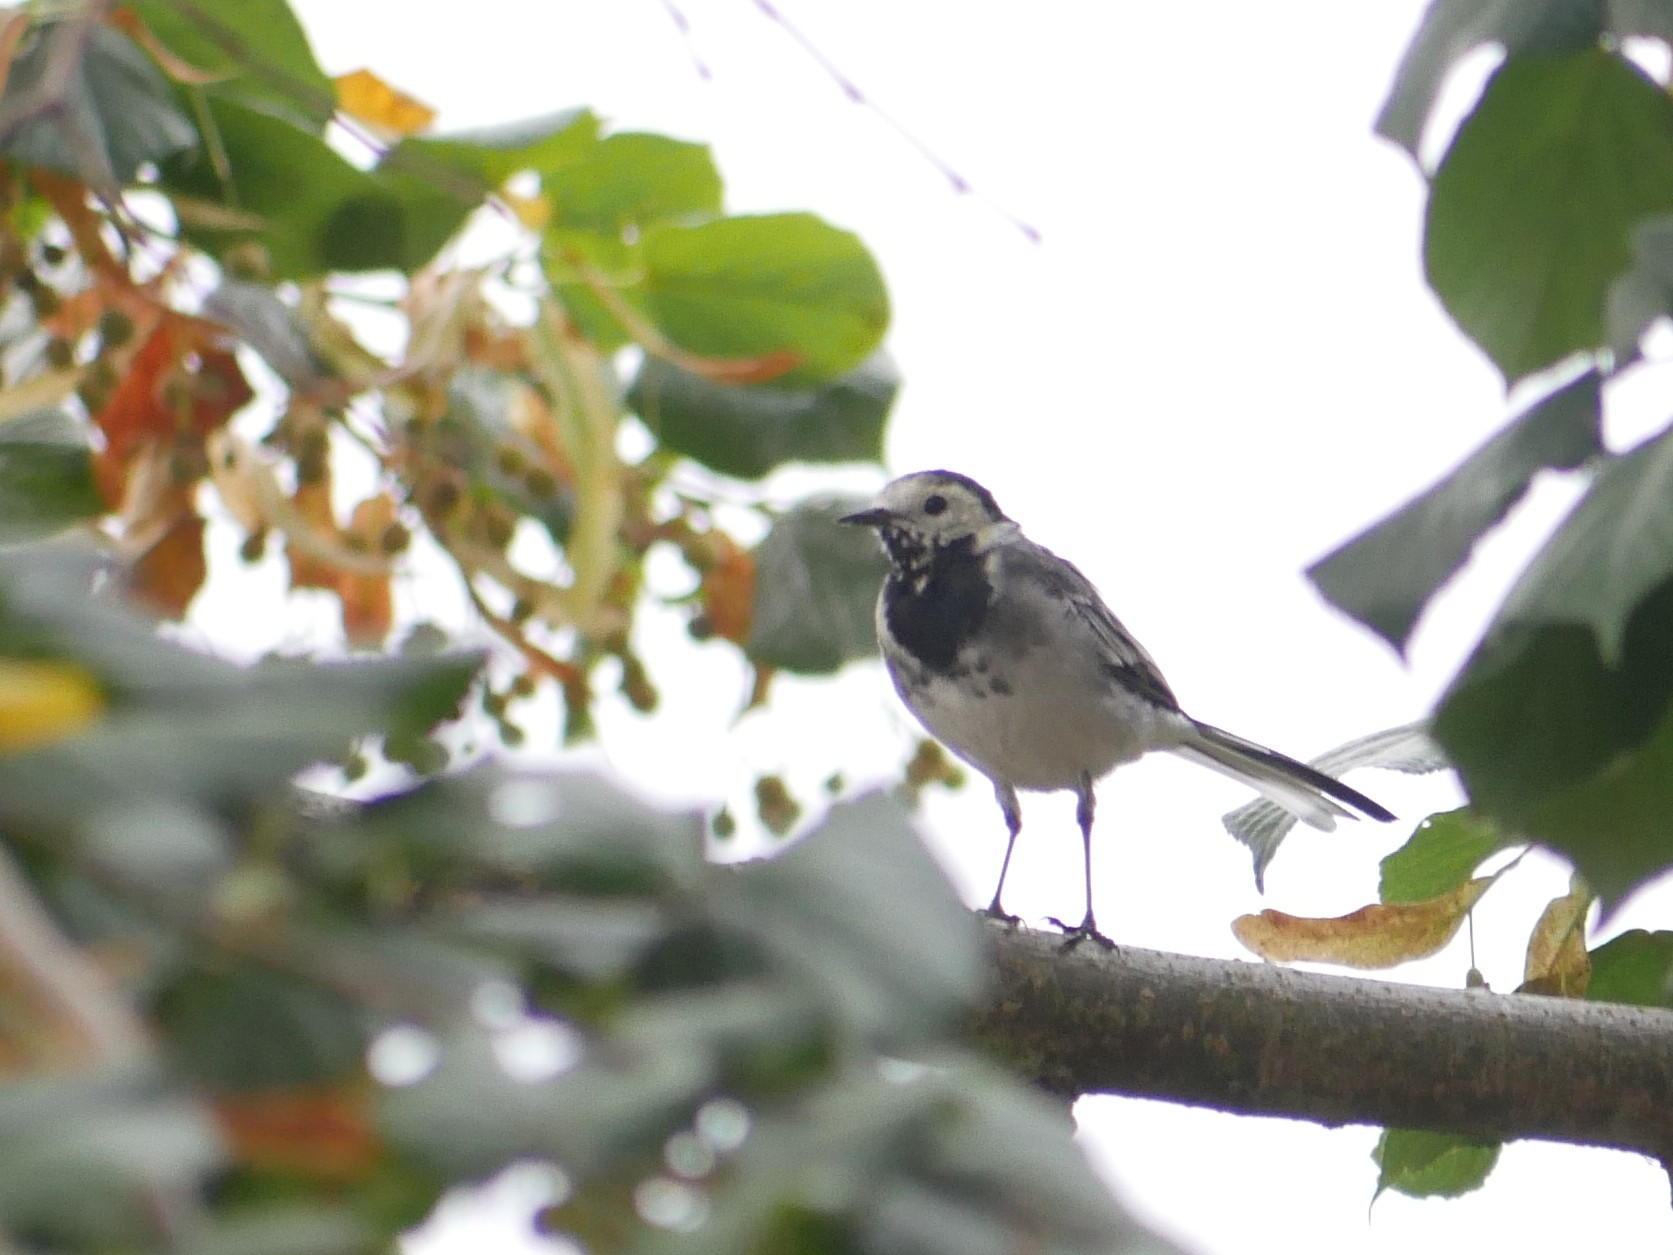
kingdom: Animalia
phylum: Chordata
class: Aves
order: Passeriformes
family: Motacillidae
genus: Motacilla
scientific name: Motacilla alba
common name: White wagtail
